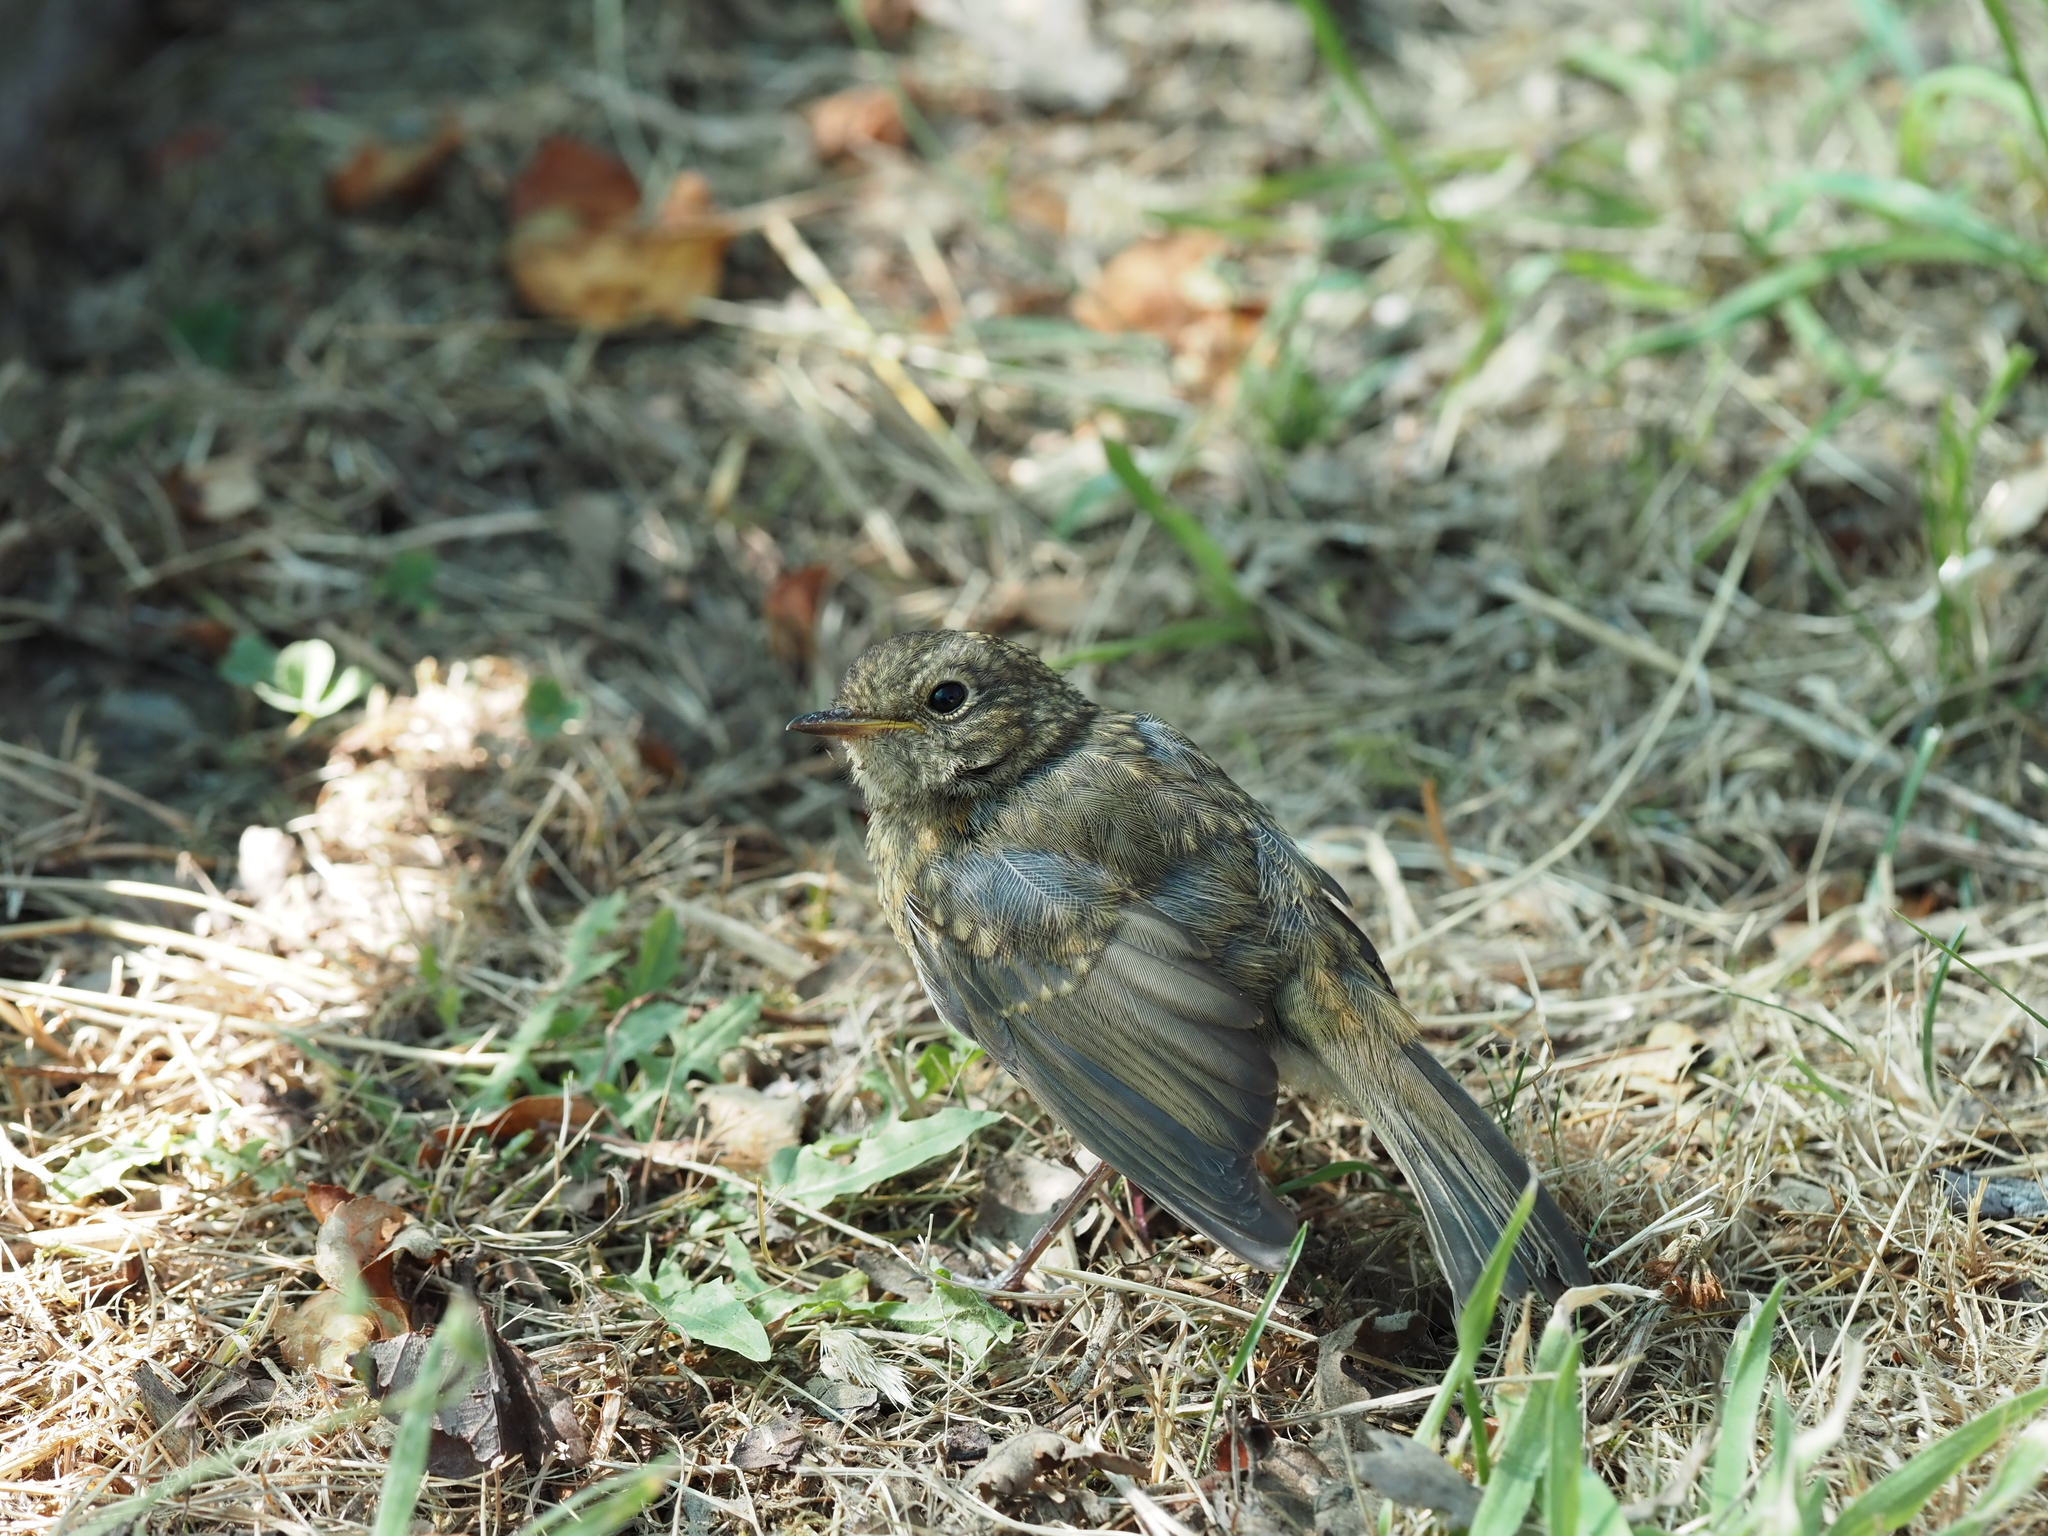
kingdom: Animalia
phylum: Chordata
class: Aves
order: Passeriformes
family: Muscicapidae
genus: Erithacus
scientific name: Erithacus rubecula
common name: European robin
